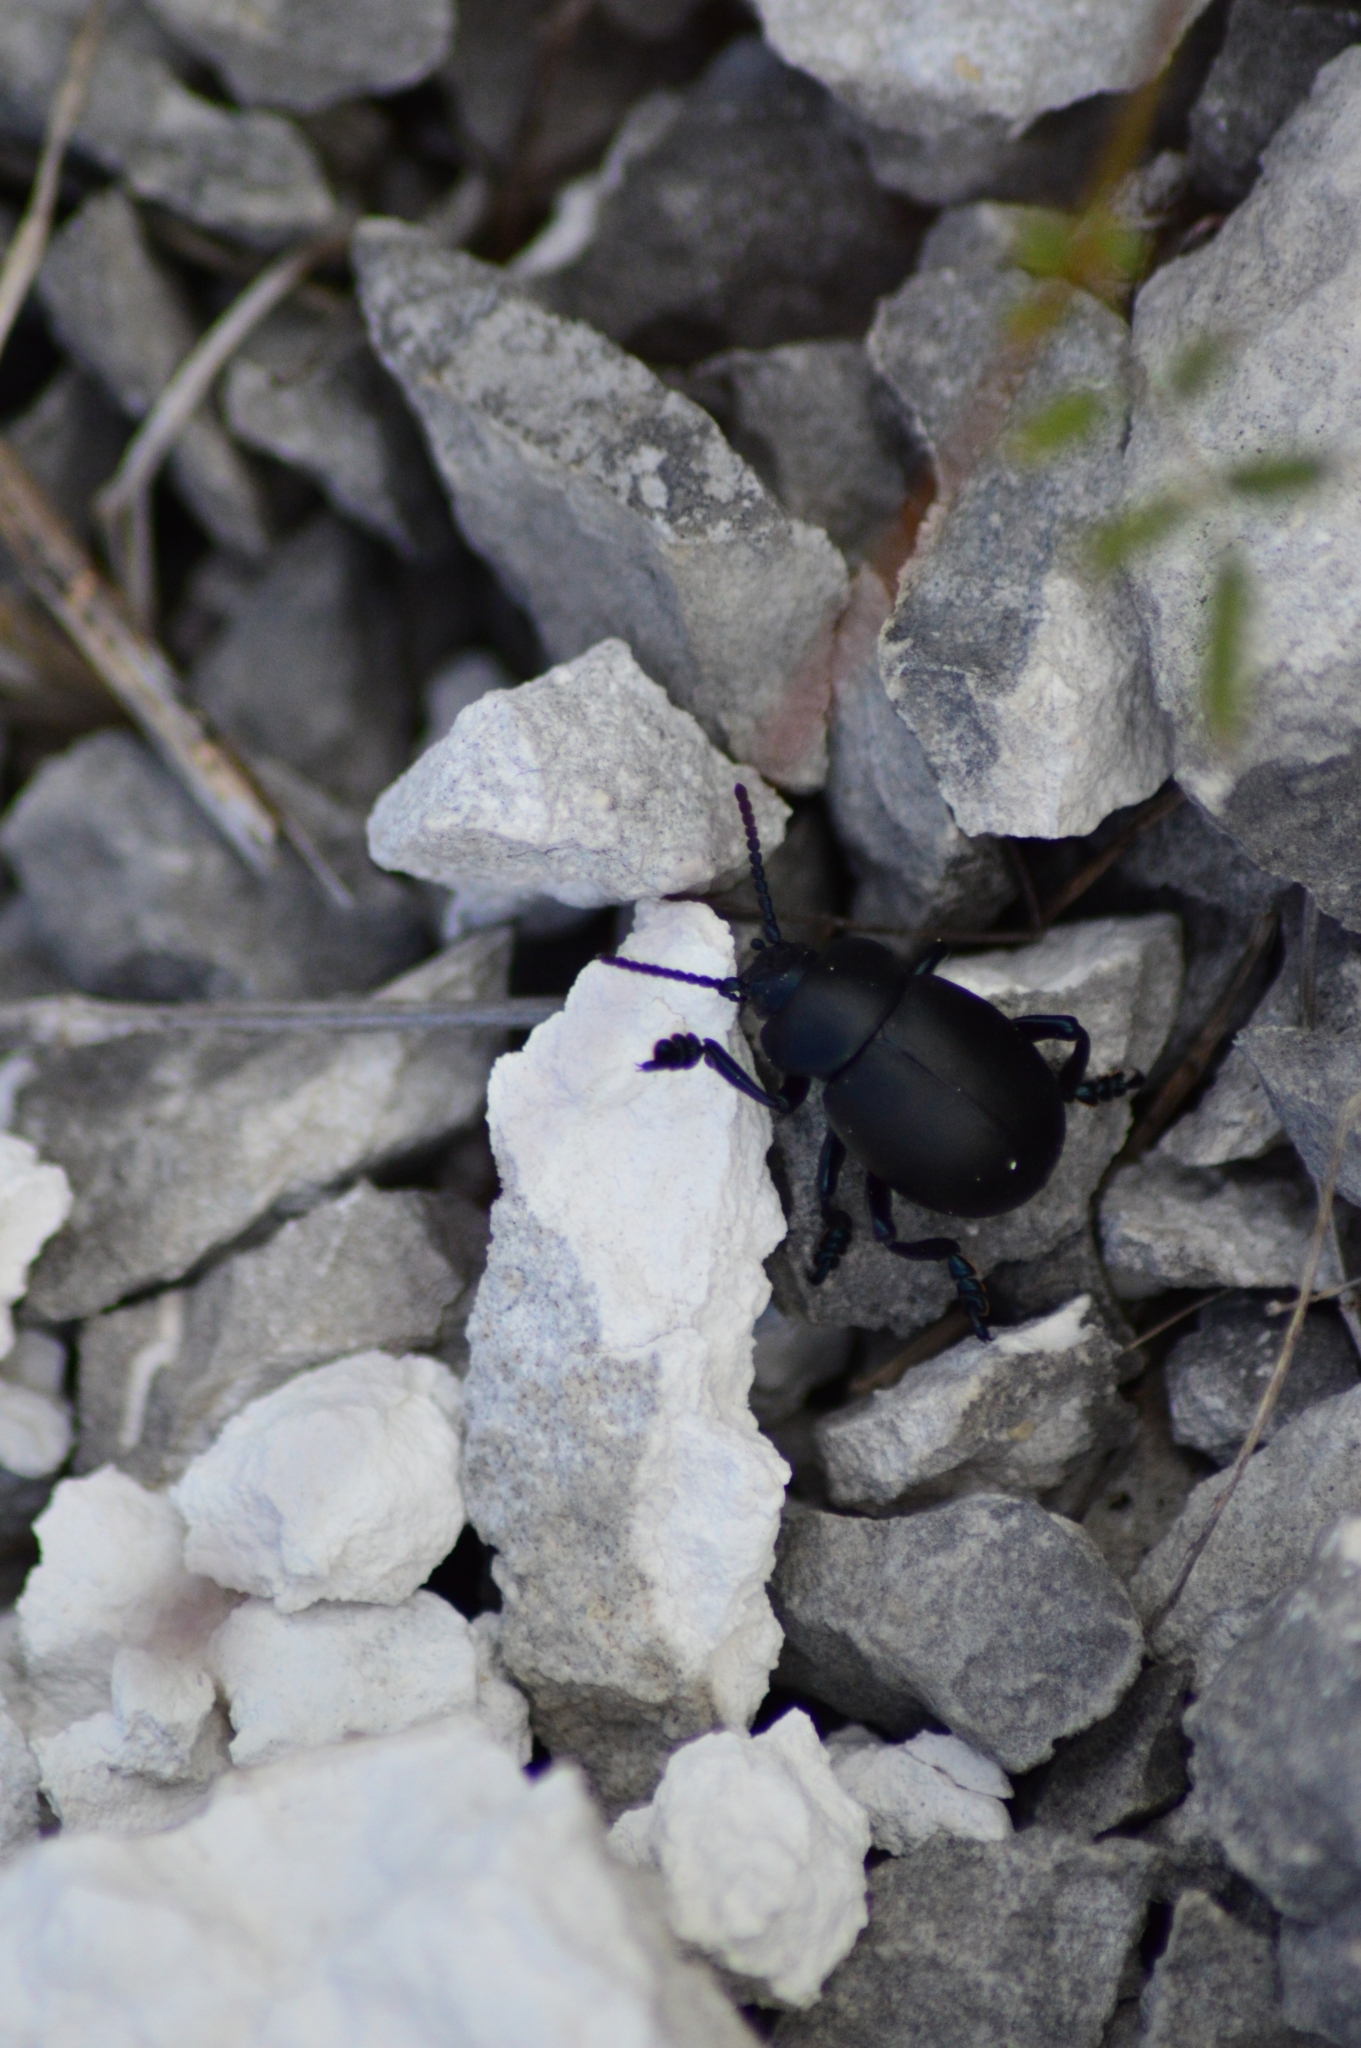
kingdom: Animalia
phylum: Arthropoda
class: Insecta
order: Coleoptera
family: Chrysomelidae
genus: Timarcha
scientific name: Timarcha tenebricosa
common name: Bloody-nosed beetle
